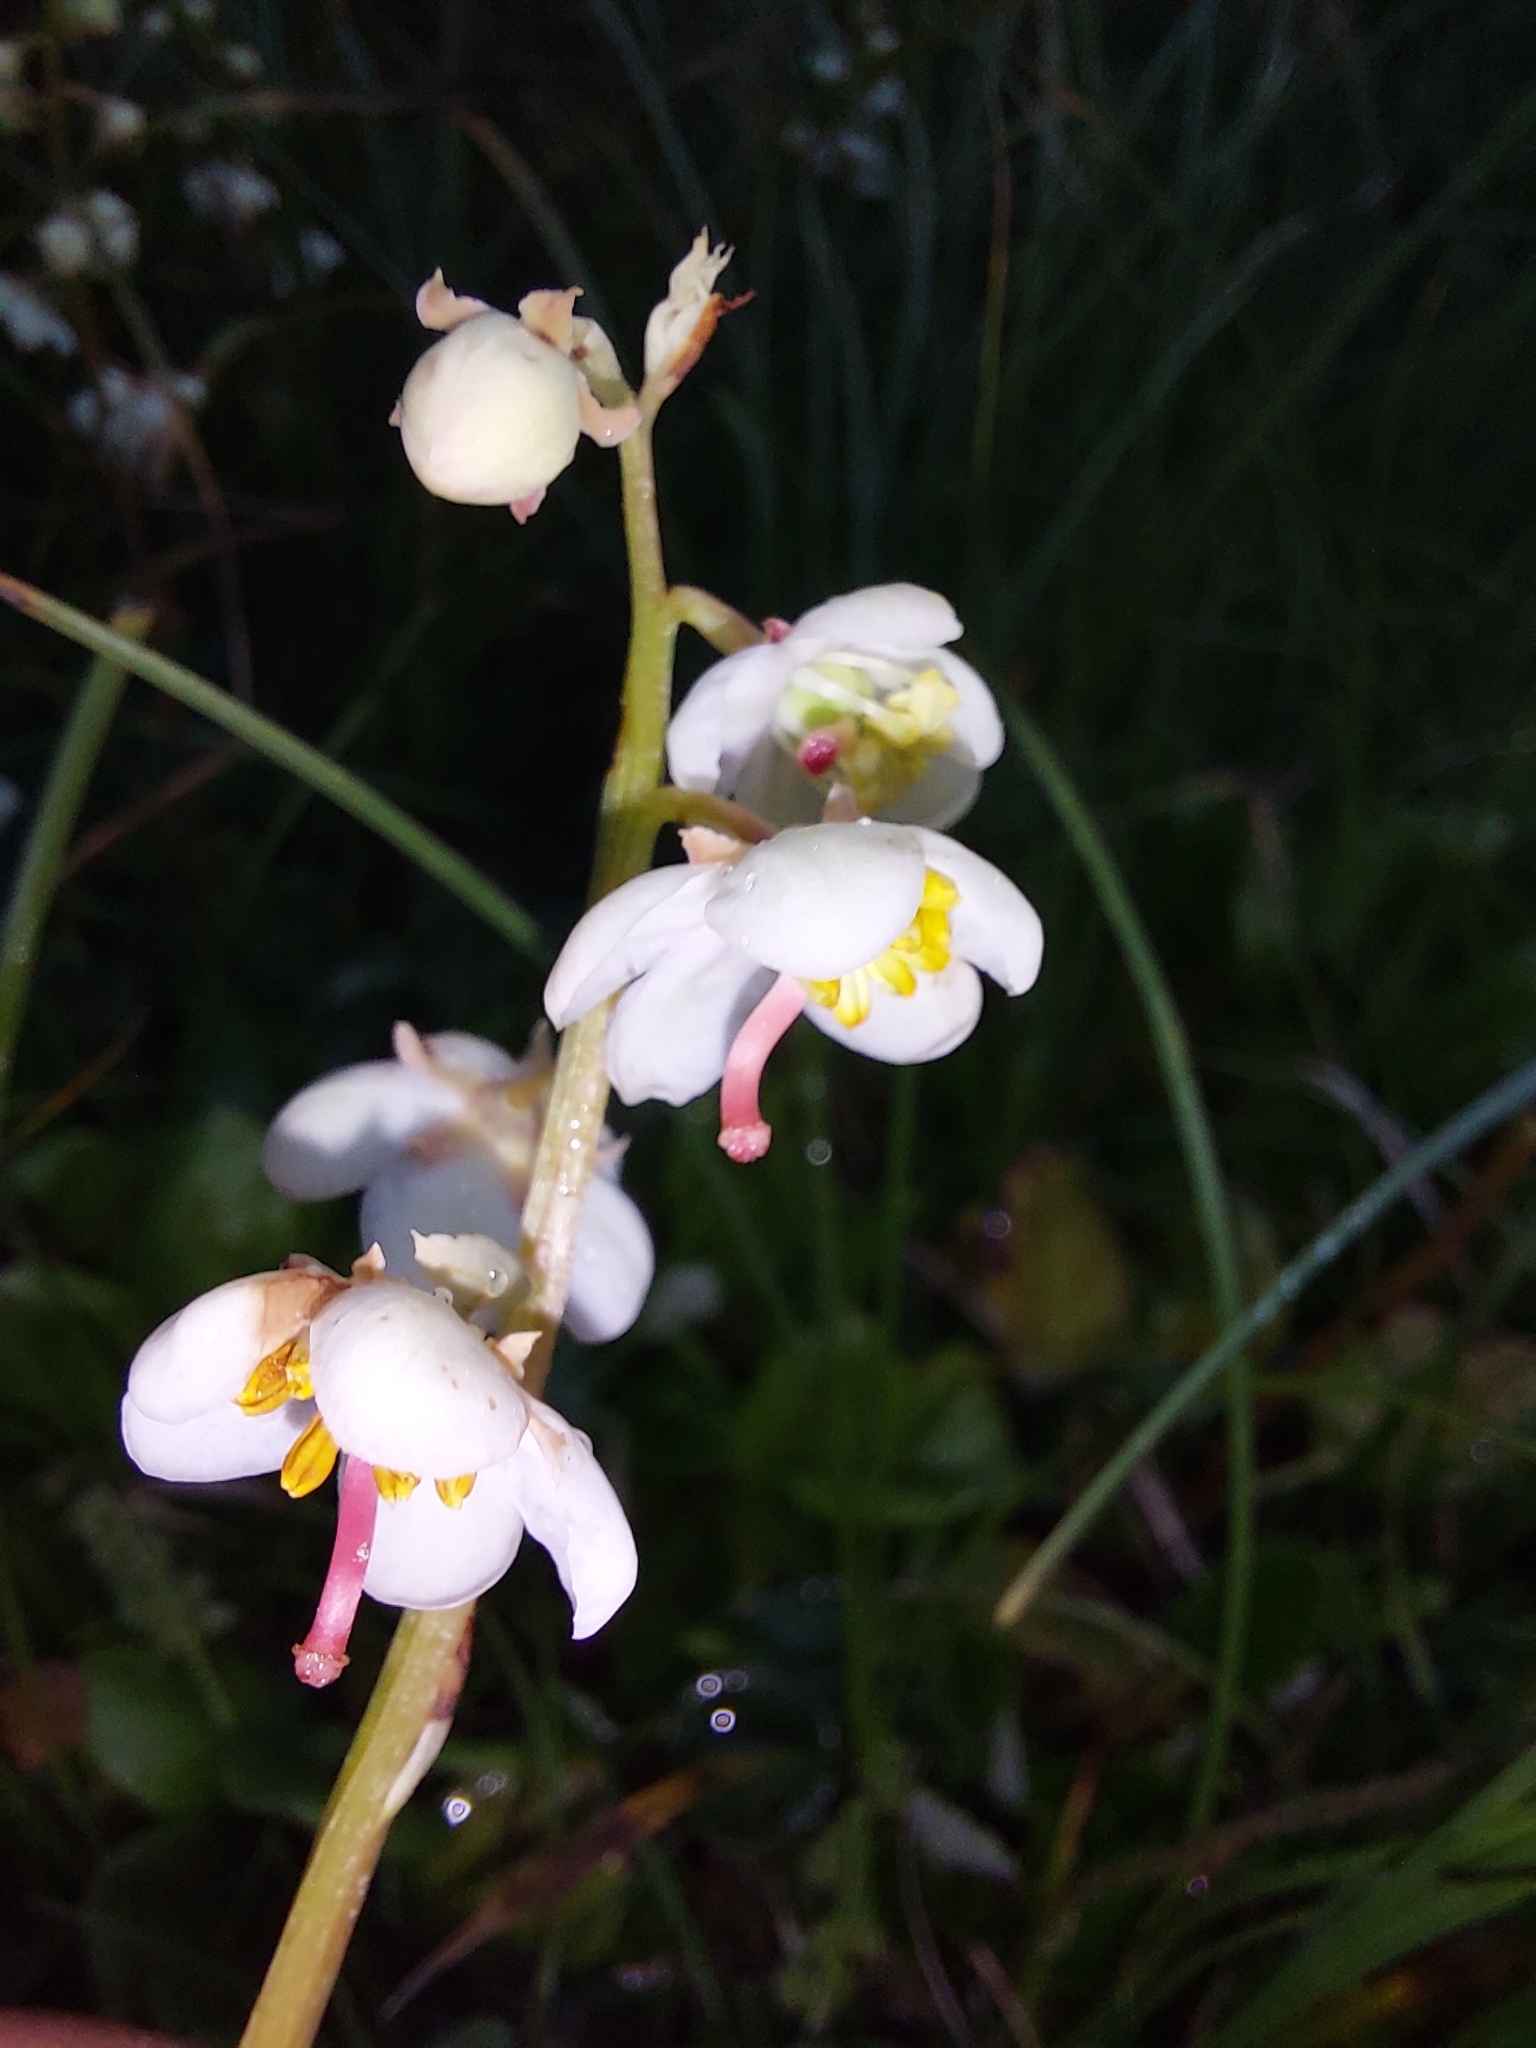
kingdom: Plantae
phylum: Tracheophyta
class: Magnoliopsida
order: Ericales
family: Ericaceae
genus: Pyrola
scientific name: Pyrola rotundifolia
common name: Round-leaved wintergreen
